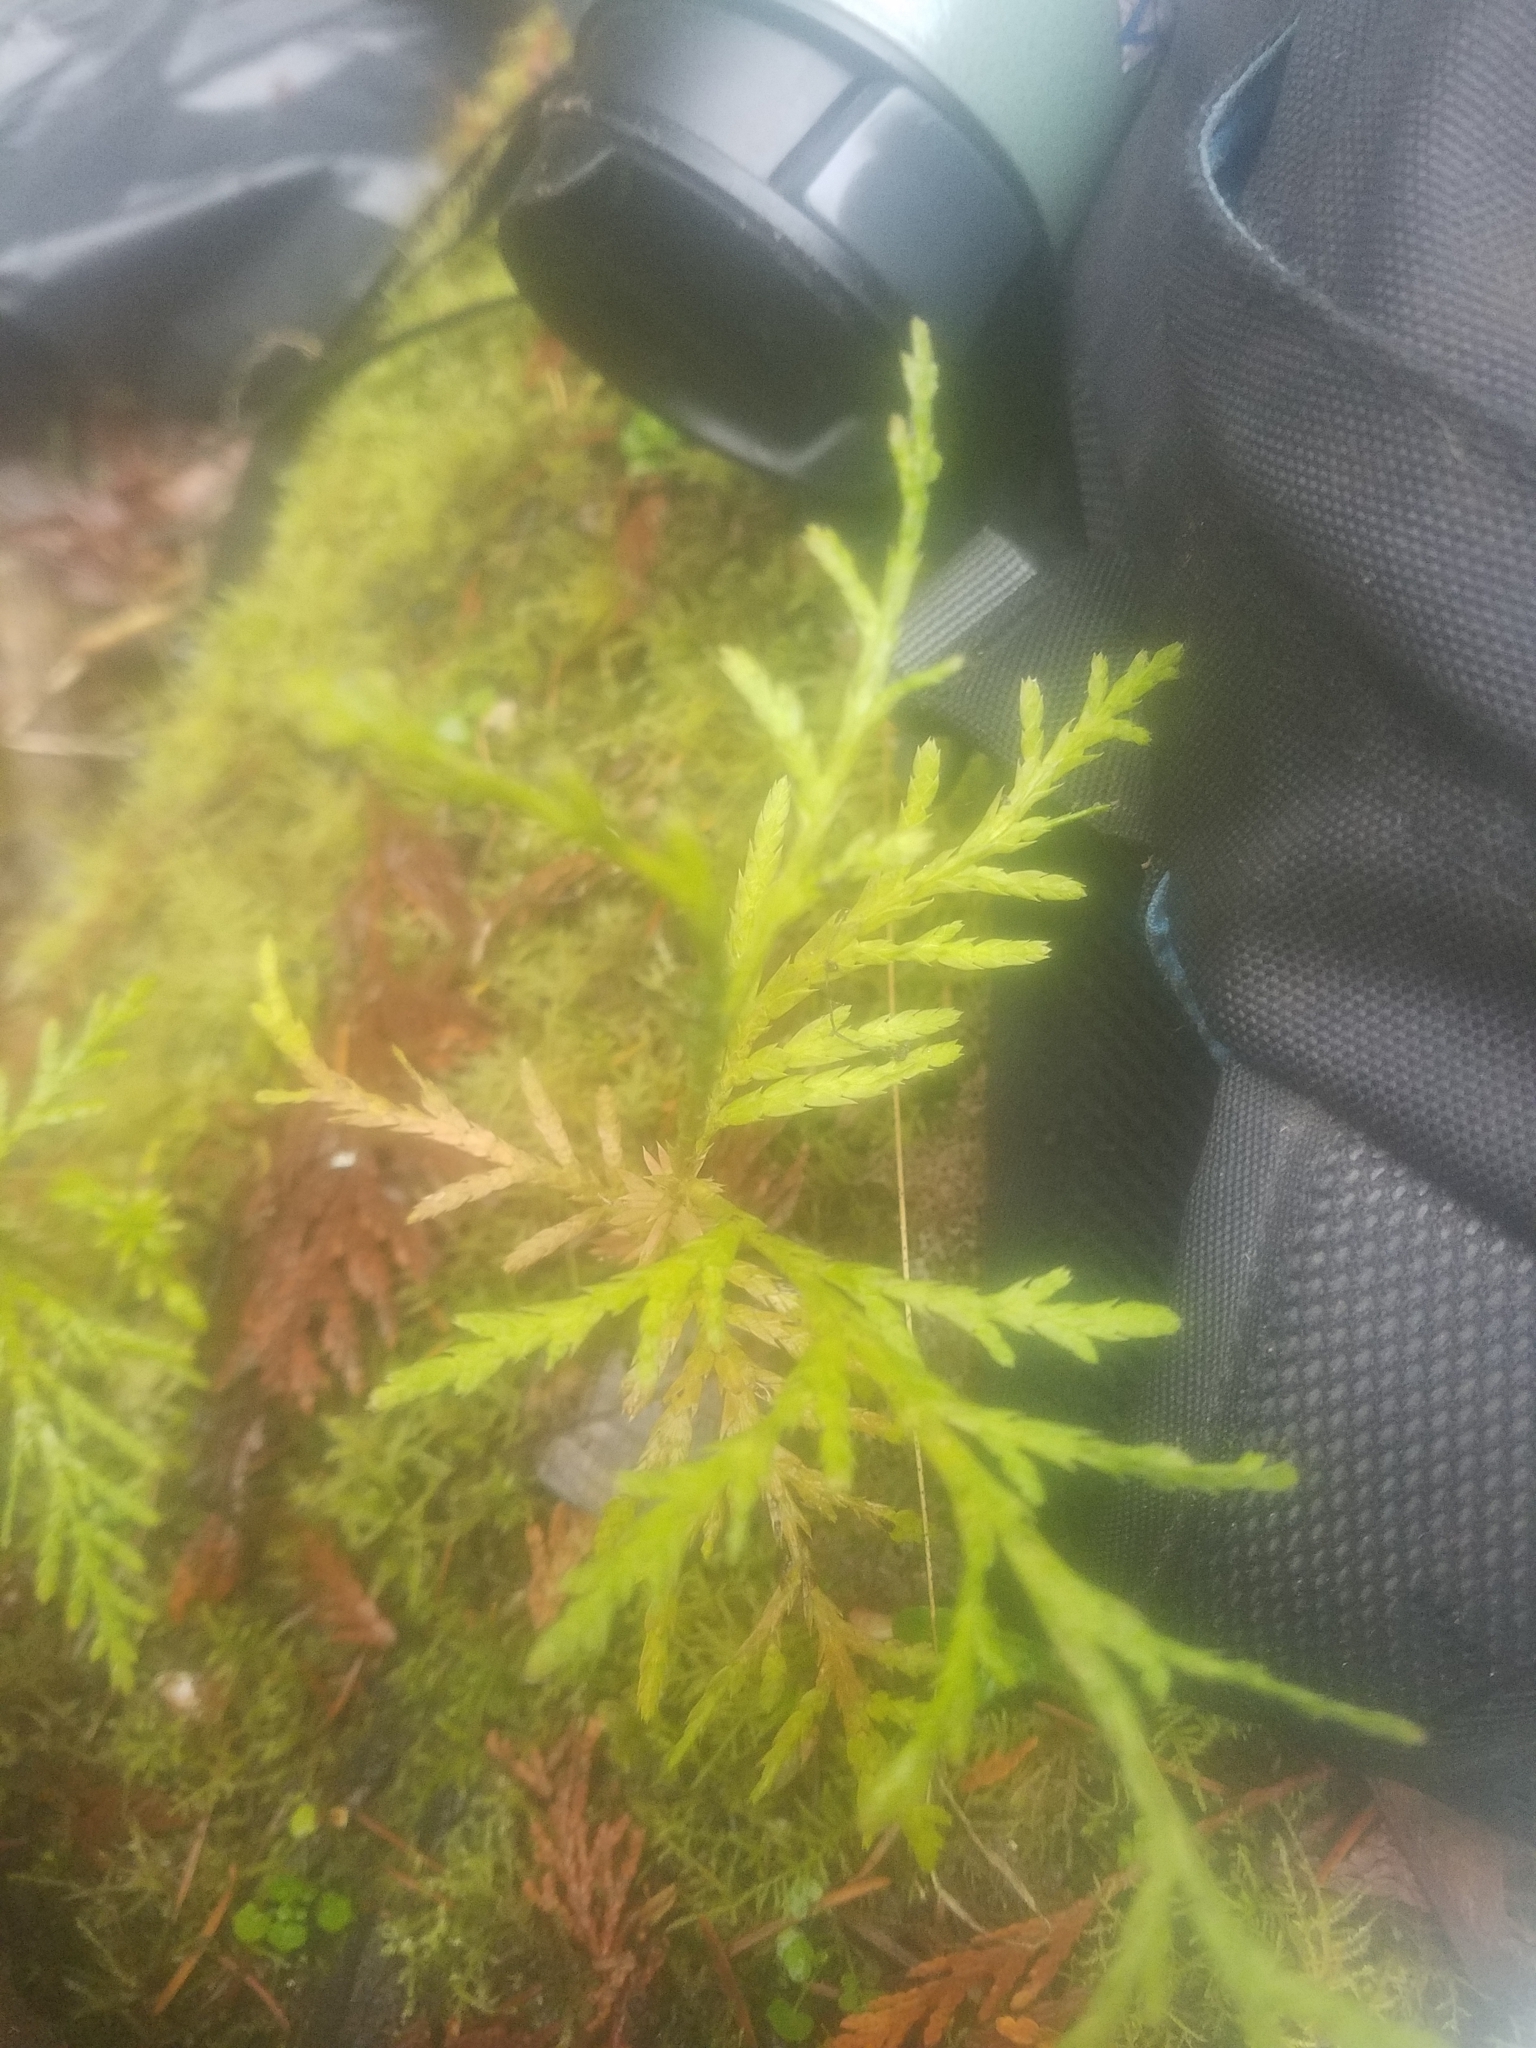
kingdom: Plantae
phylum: Tracheophyta
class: Pinopsida
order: Pinales
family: Cupressaceae
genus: Thuja
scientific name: Thuja plicata
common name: Western red-cedar
